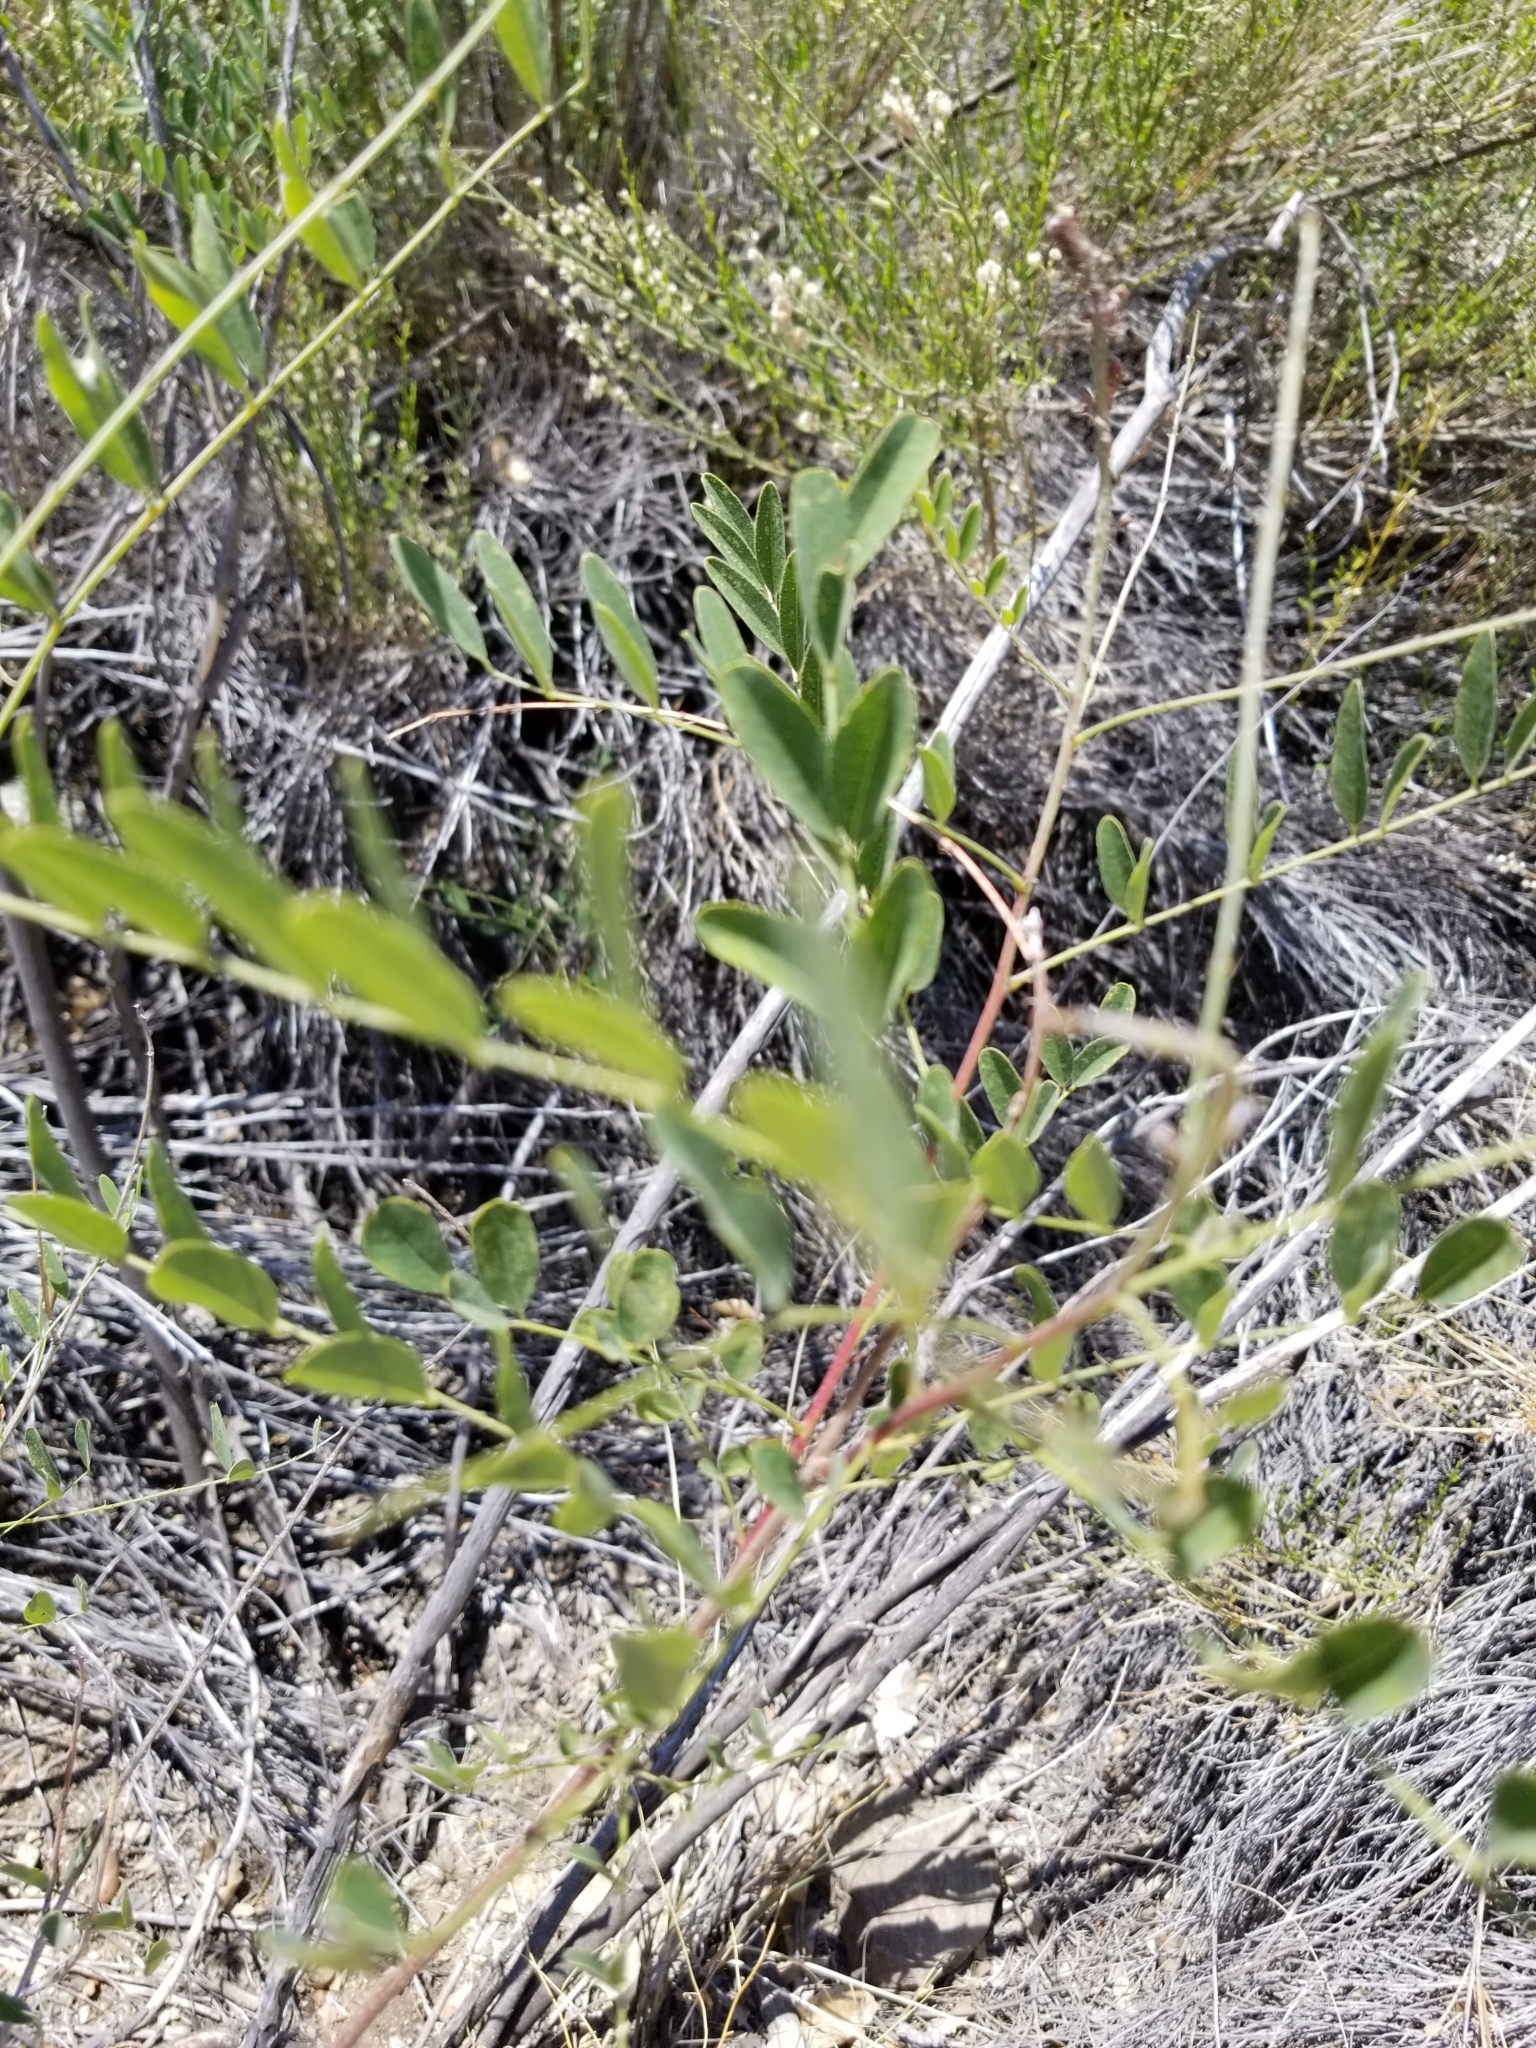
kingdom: Plantae
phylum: Tracheophyta
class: Magnoliopsida
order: Fabales
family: Fabaceae
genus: Amorpha
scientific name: Amorpha fruticosa
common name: False indigo
